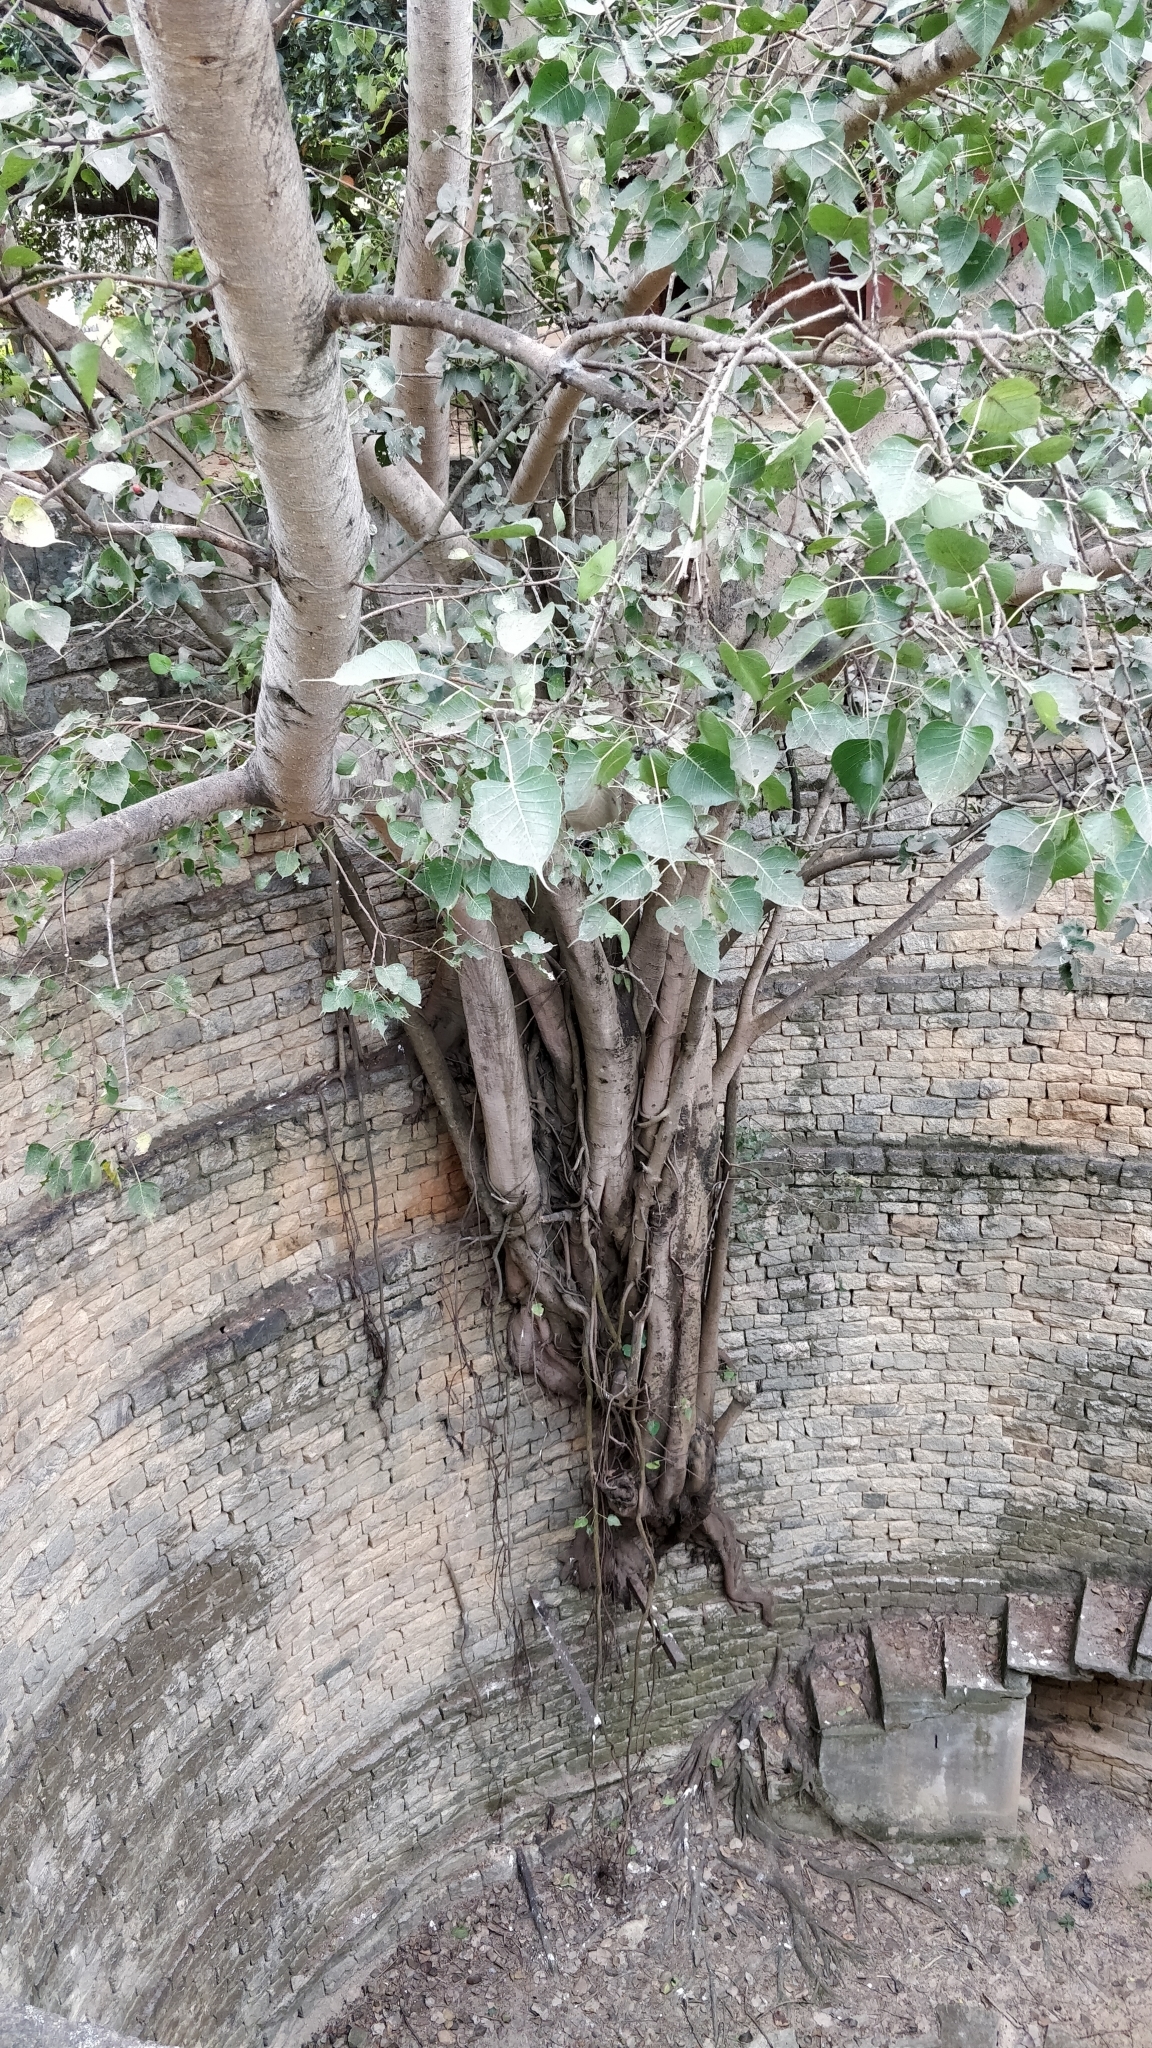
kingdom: Plantae
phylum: Tracheophyta
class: Magnoliopsida
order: Rosales
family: Moraceae
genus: Ficus
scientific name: Ficus religiosa
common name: Bodhi tree
